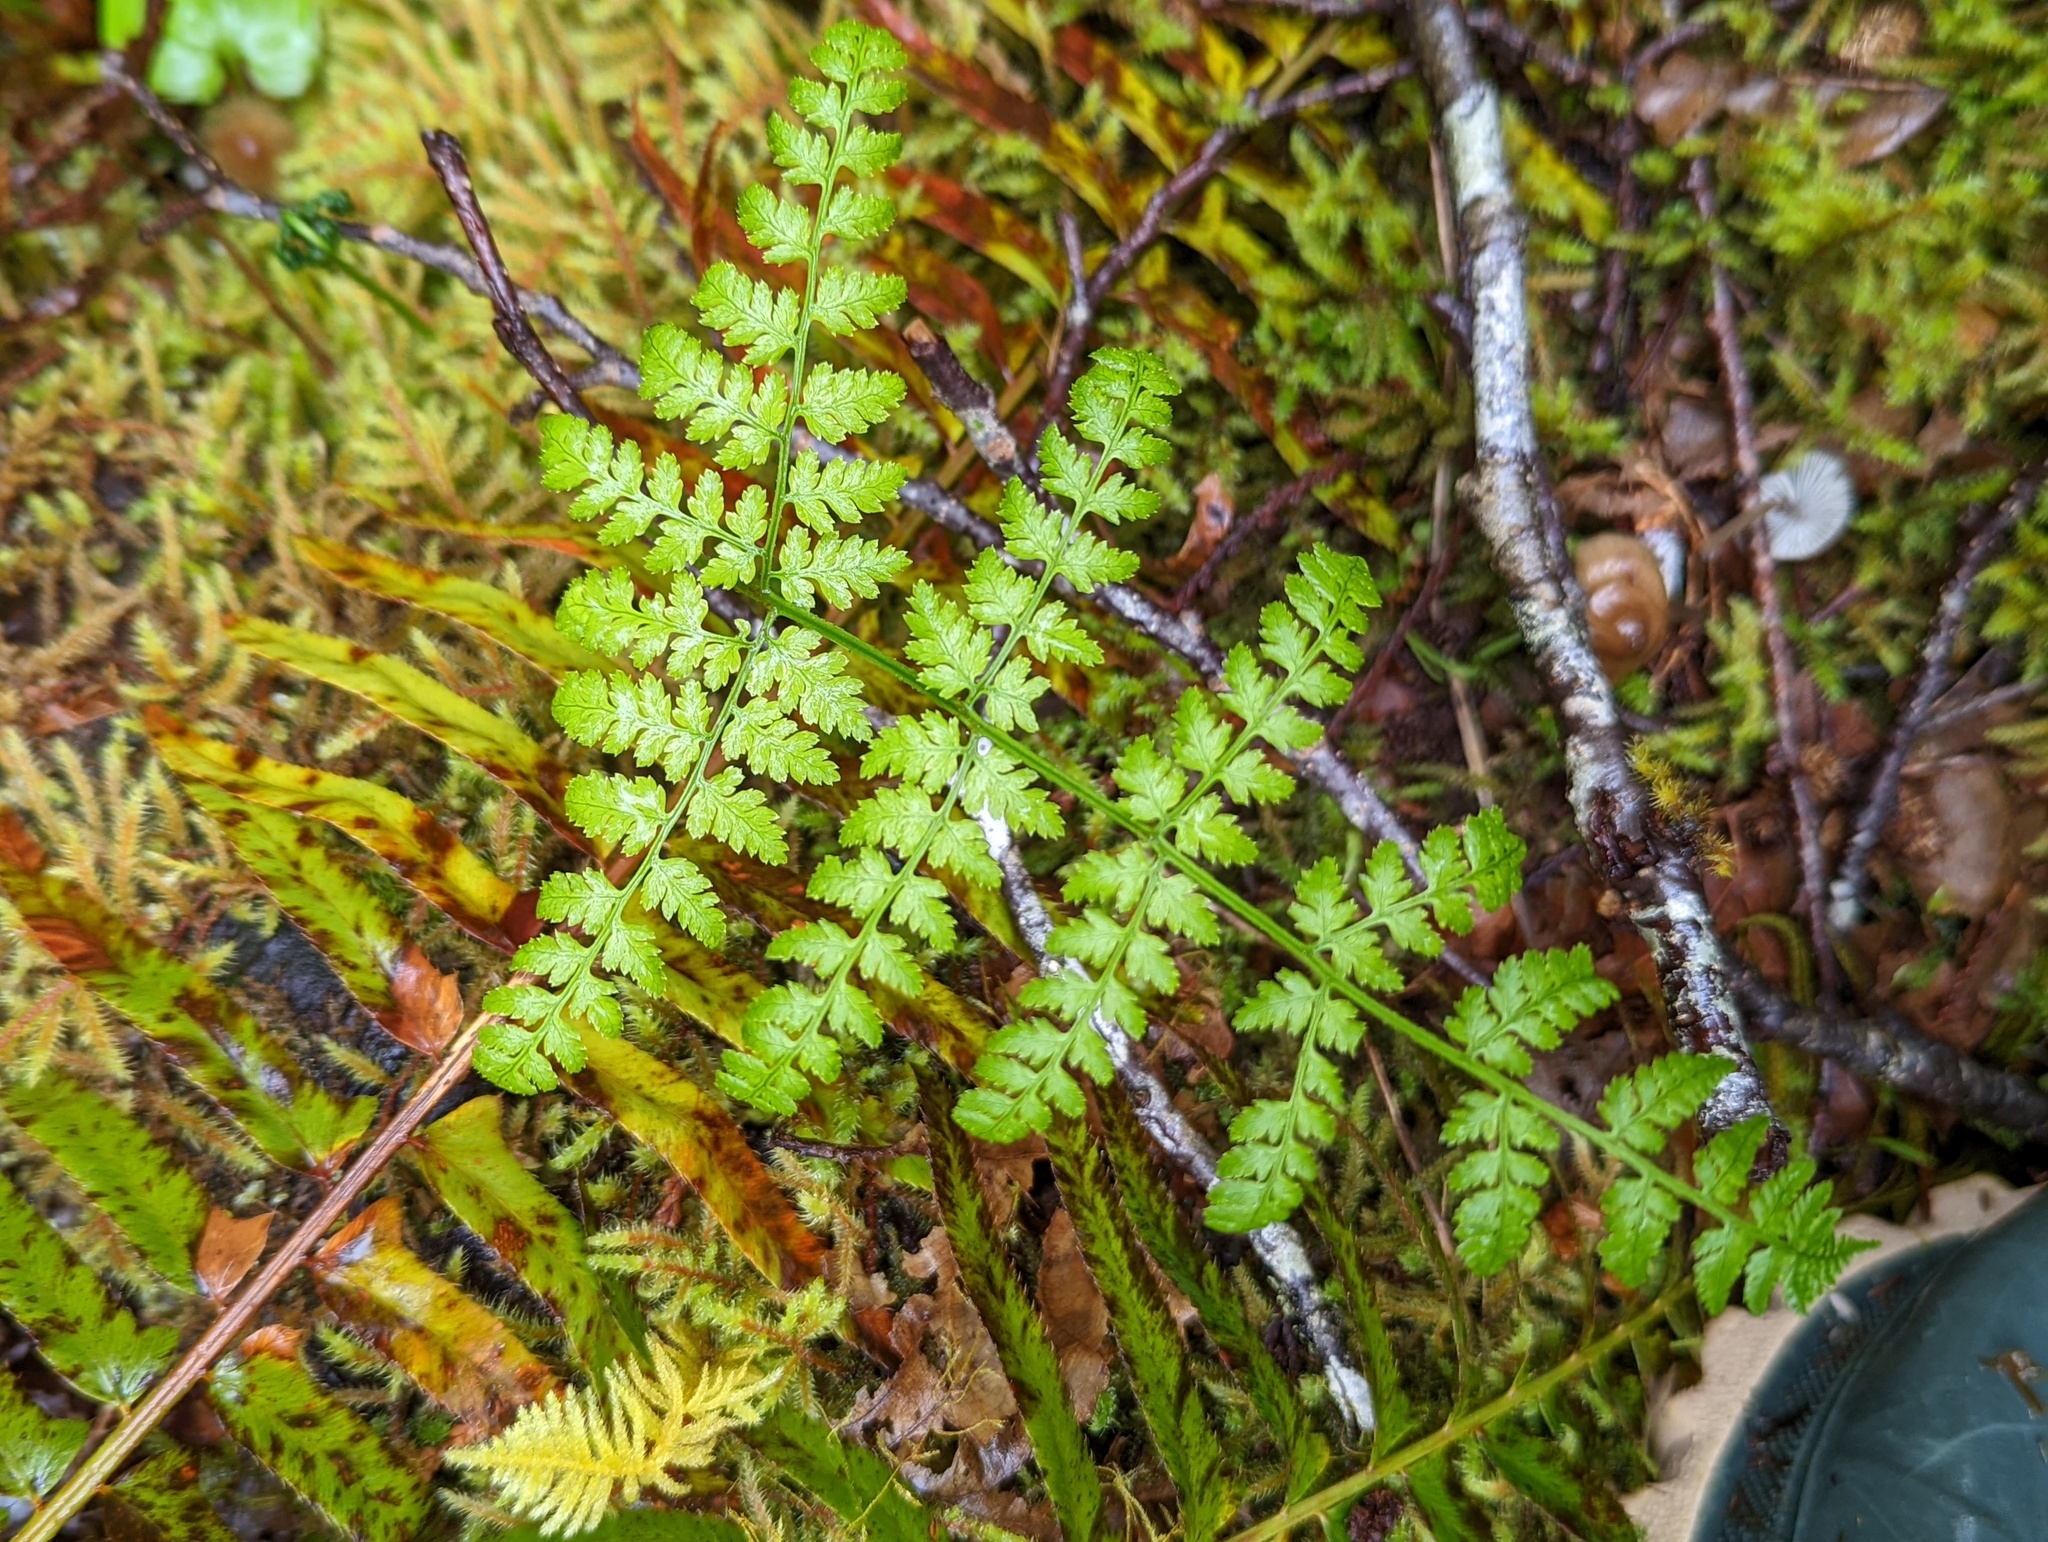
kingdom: Plantae
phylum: Tracheophyta
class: Polypodiopsida
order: Polypodiales
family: Dryopteridaceae
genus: Dryopteris
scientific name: Dryopteris expansa
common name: Northern buckler fern
